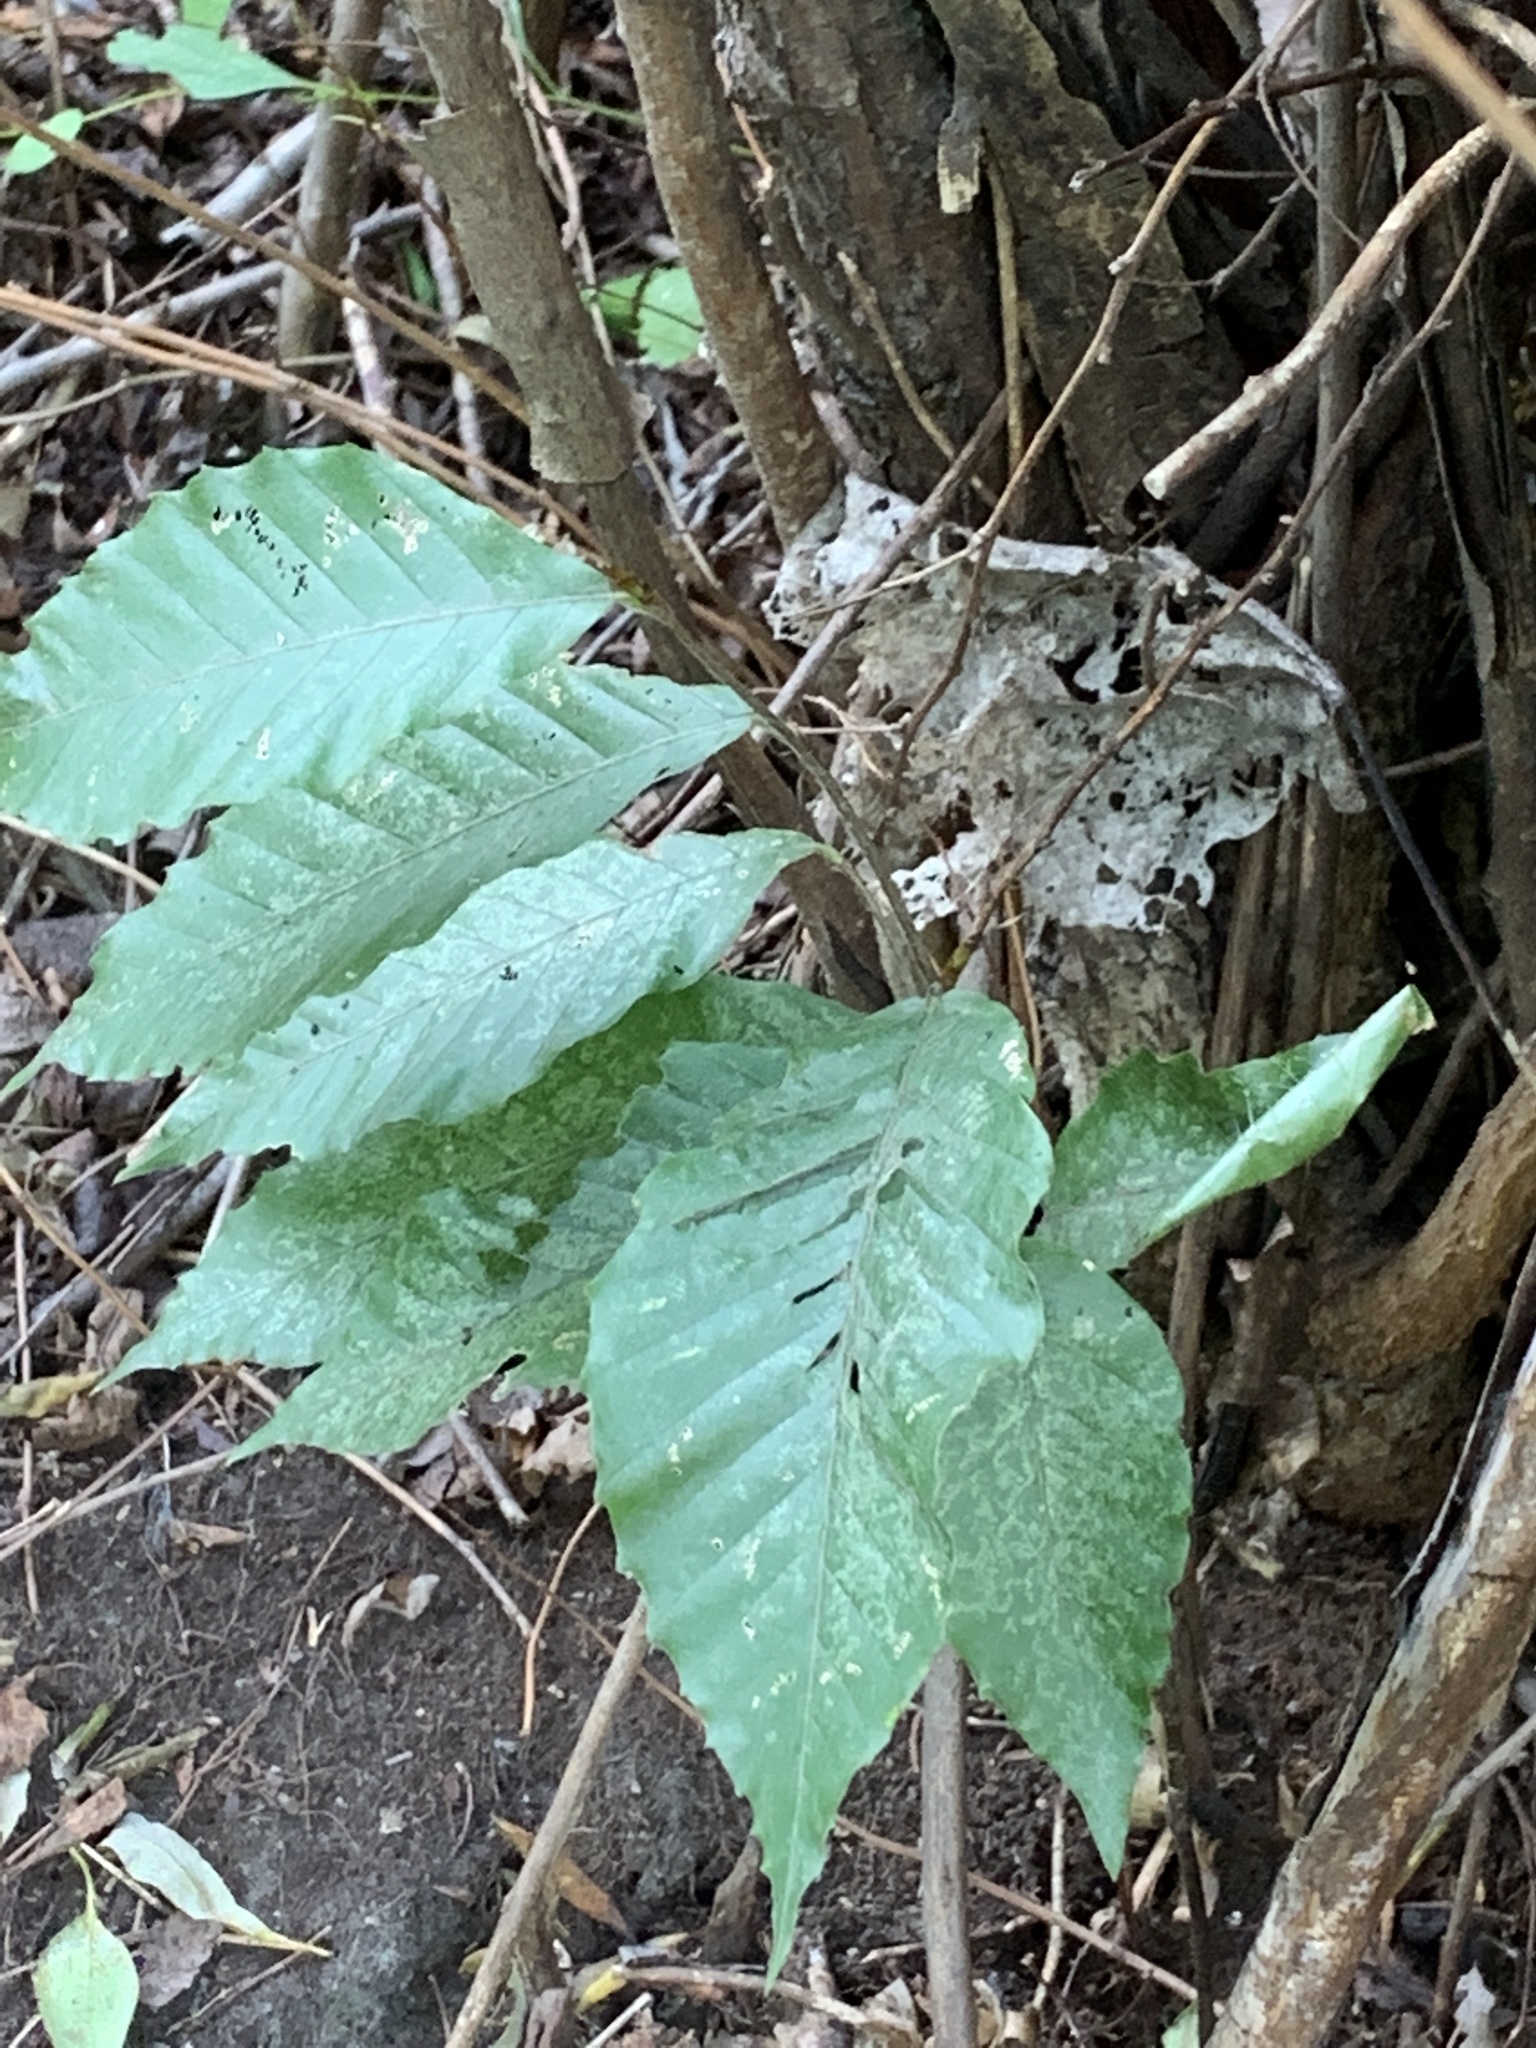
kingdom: Plantae
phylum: Tracheophyta
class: Magnoliopsida
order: Fagales
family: Fagaceae
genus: Fagus
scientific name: Fagus grandifolia
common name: American beech
